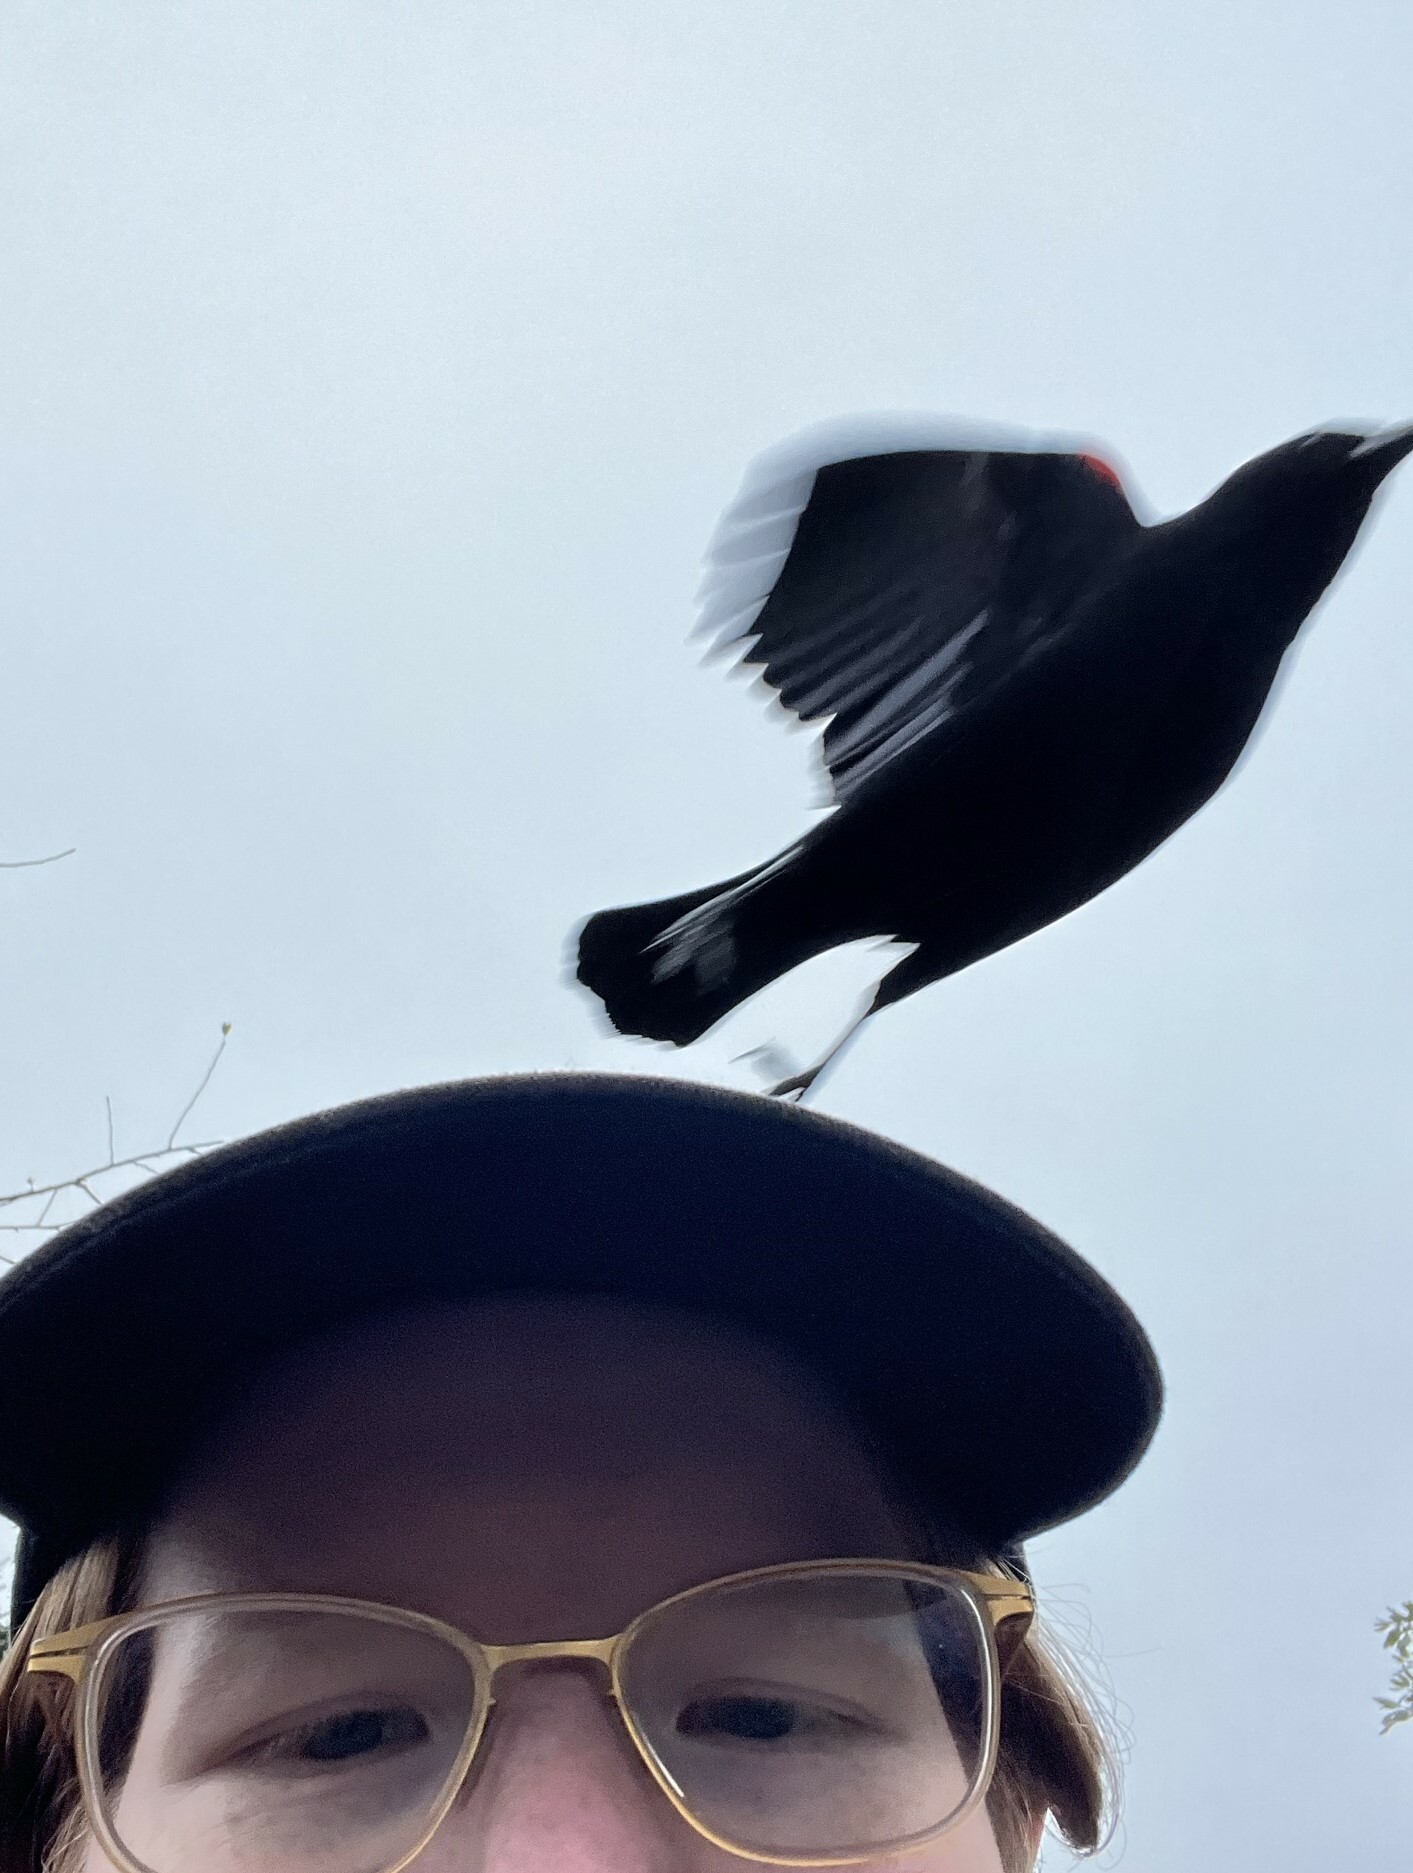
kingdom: Animalia
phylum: Chordata
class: Aves
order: Passeriformes
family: Icteridae
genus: Agelaius
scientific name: Agelaius phoeniceus
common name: Red-winged blackbird
